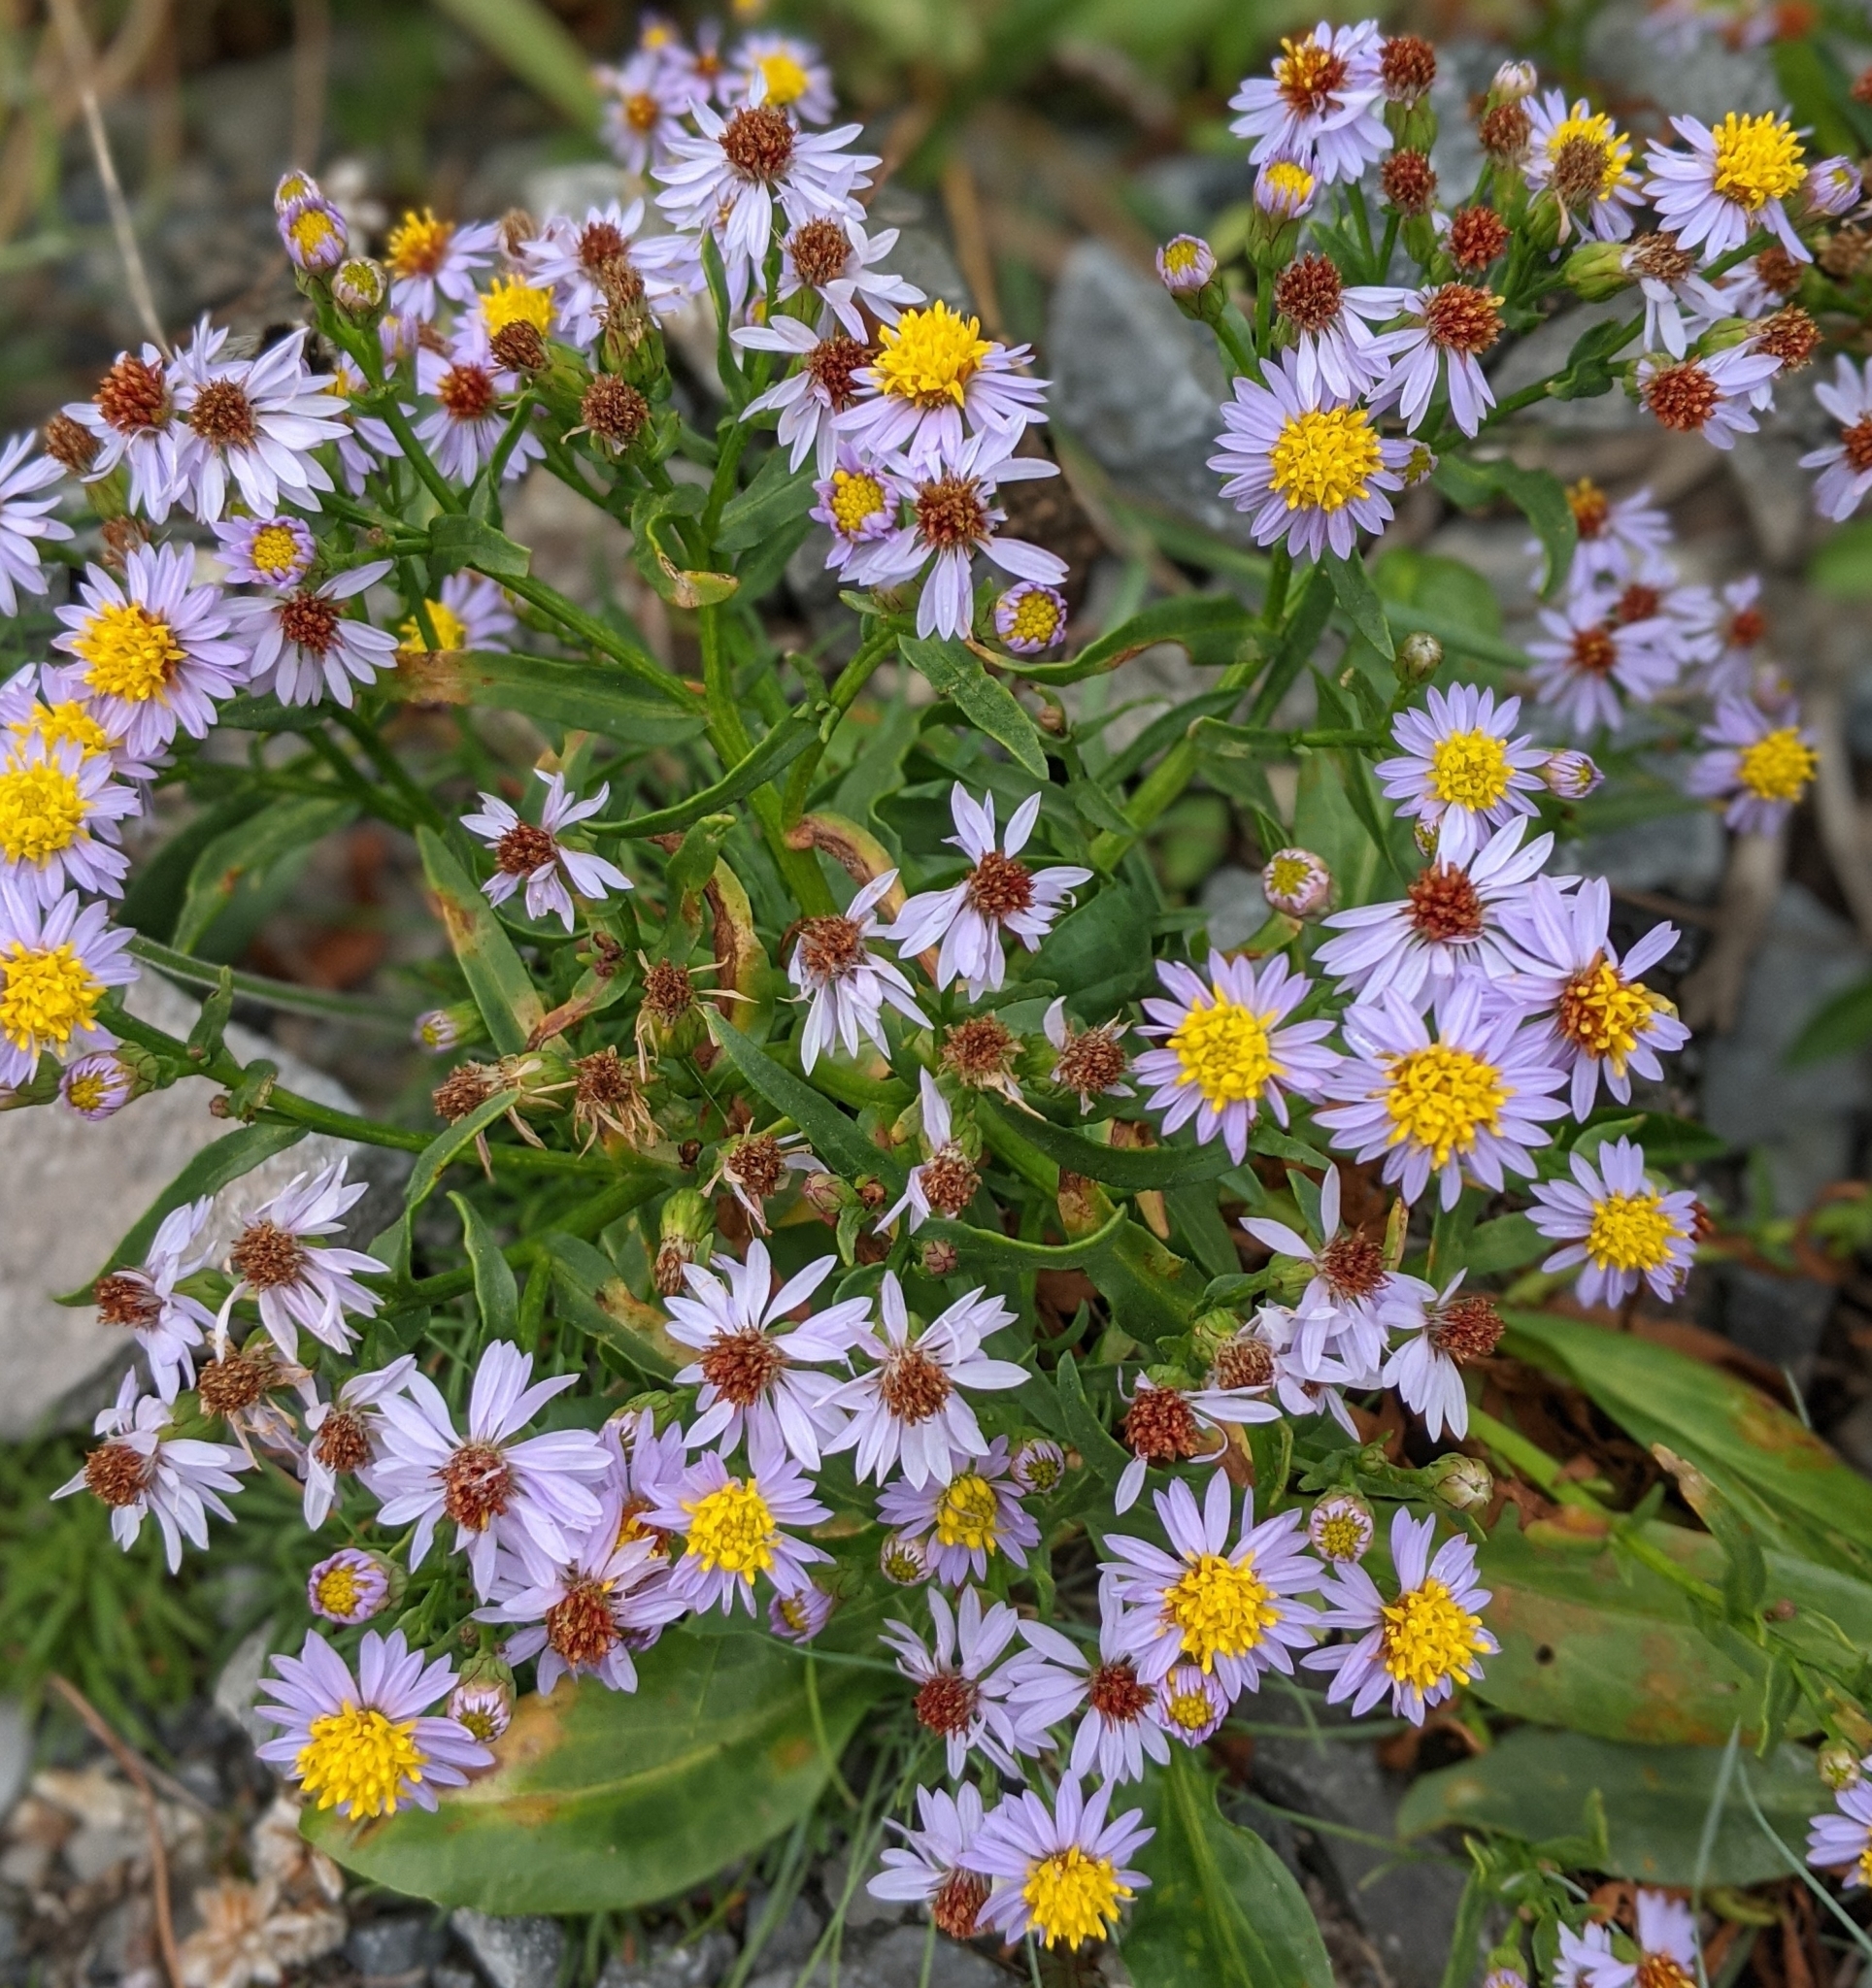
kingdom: Plantae
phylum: Tracheophyta
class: Magnoliopsida
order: Asterales
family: Asteraceae
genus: Tripolium
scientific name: Tripolium pannonicum
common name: Sea aster
